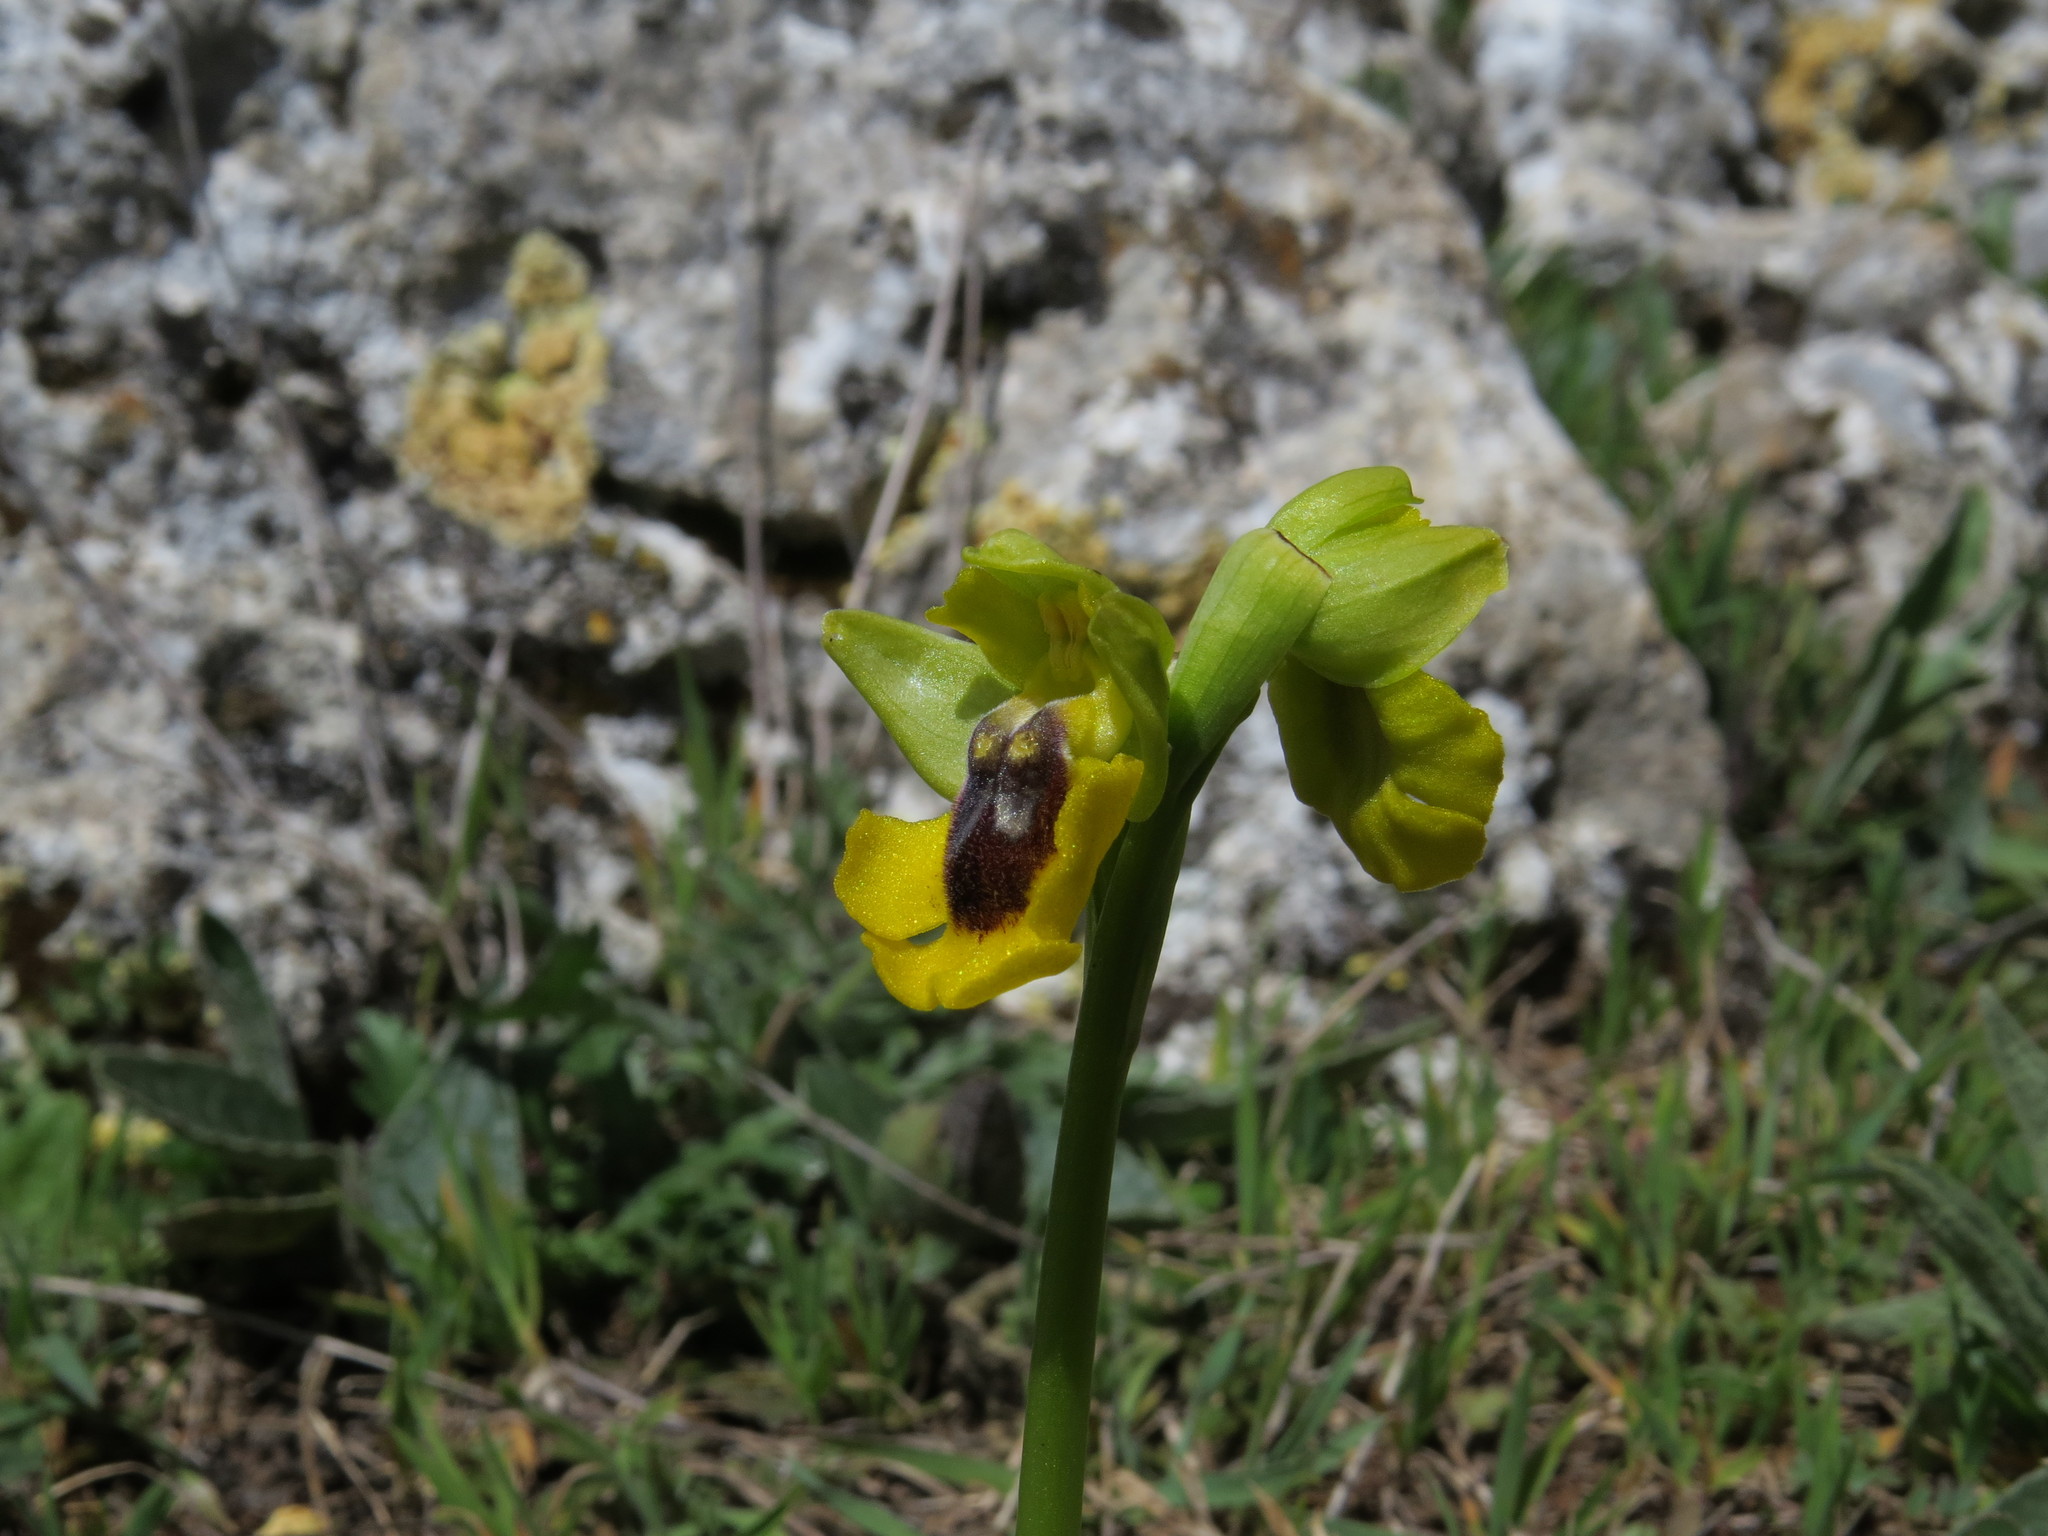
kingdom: Plantae
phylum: Tracheophyta
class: Liliopsida
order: Asparagales
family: Orchidaceae
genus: Ophrys
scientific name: Ophrys lutea
